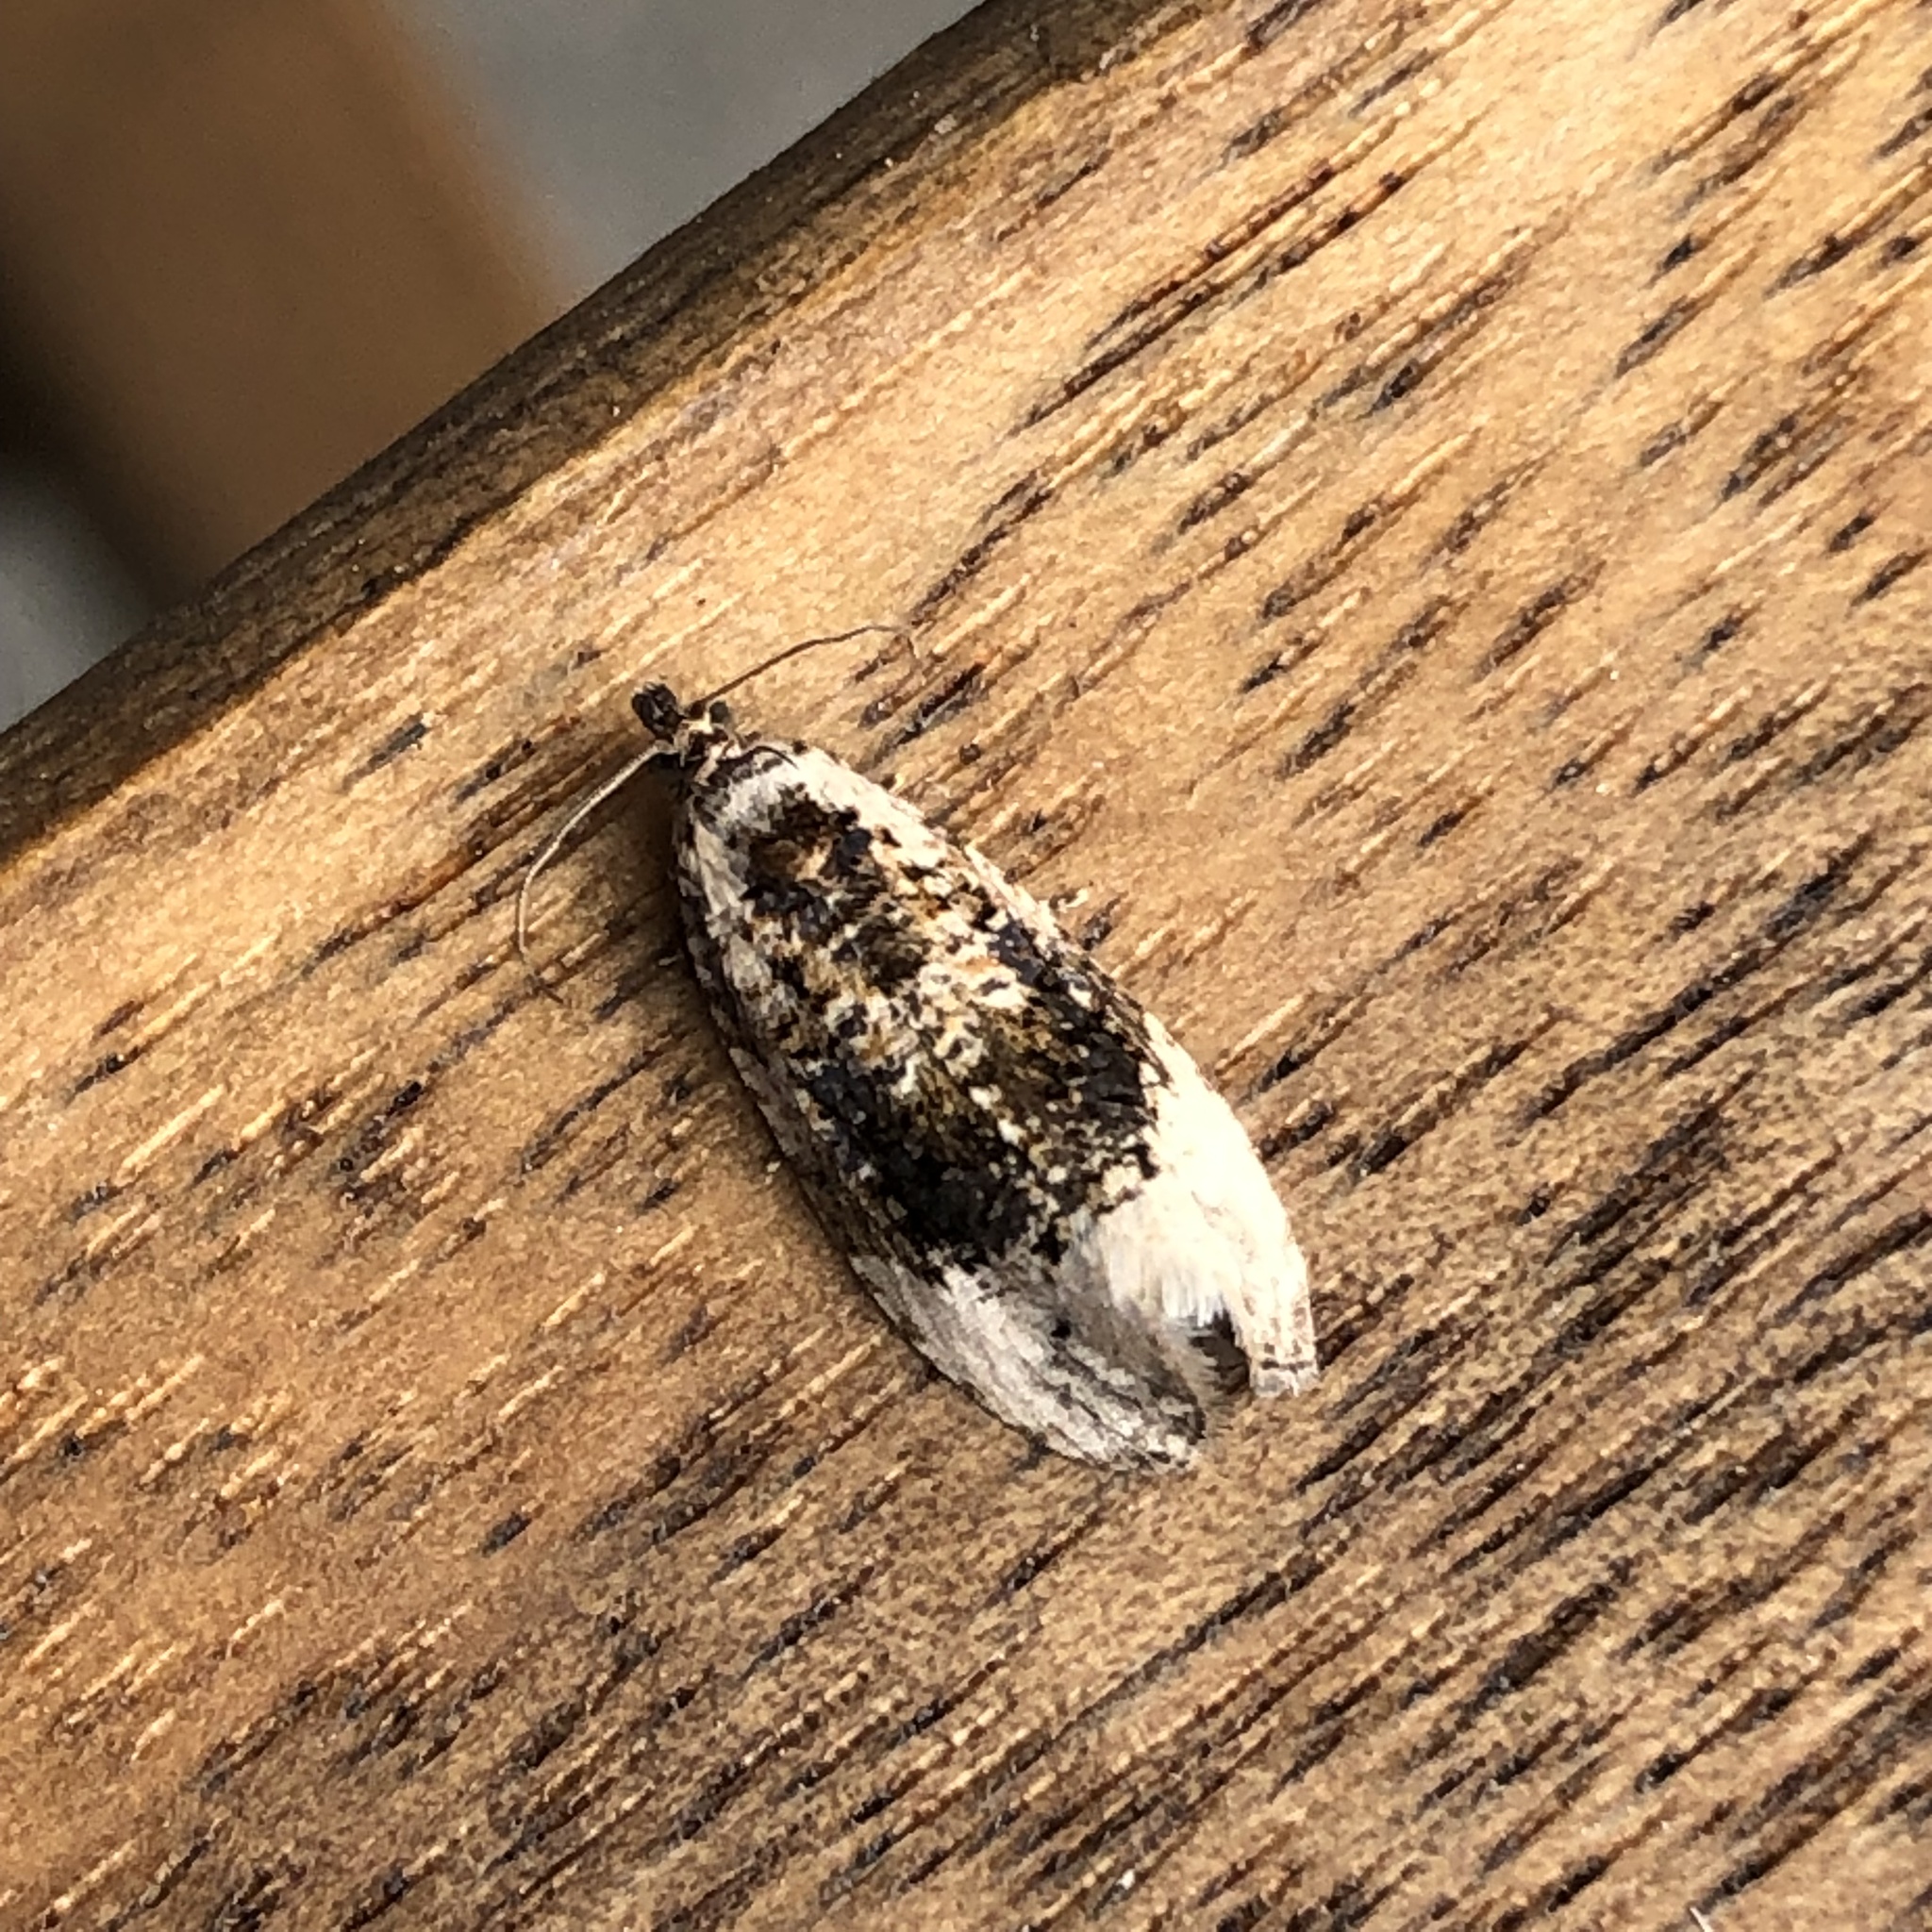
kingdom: Animalia
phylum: Arthropoda
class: Insecta
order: Lepidoptera
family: Tortricidae
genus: Hedya
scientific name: Hedya ochroleucana
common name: Buff-tipped marble
